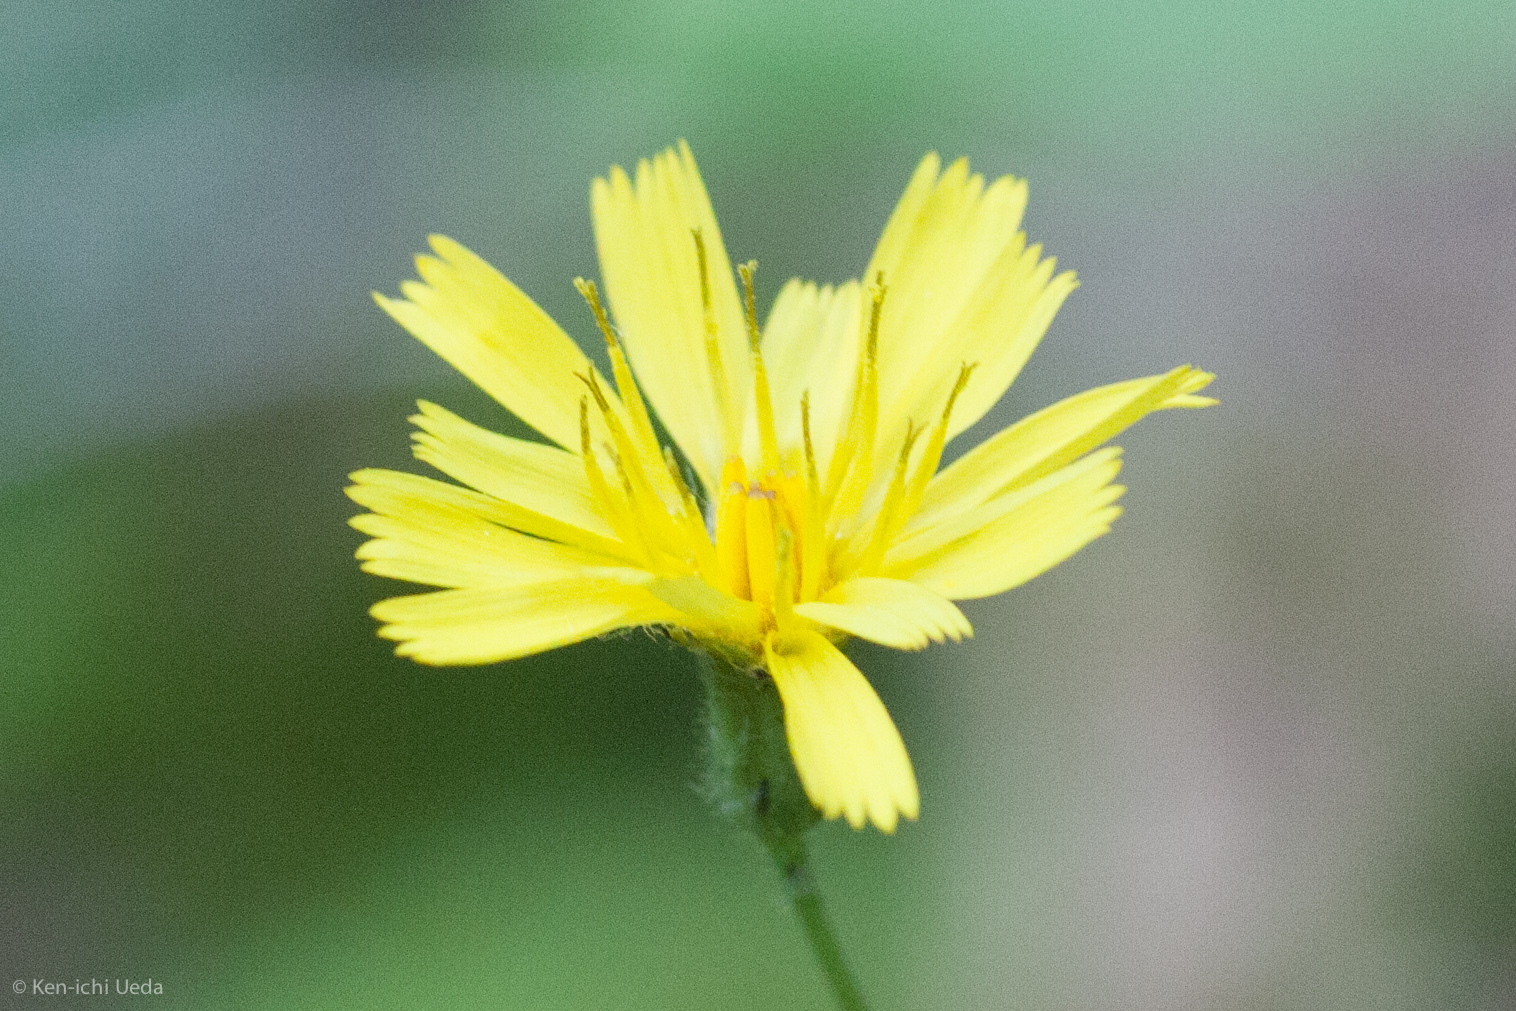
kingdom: Plantae
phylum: Tracheophyta
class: Magnoliopsida
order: Asterales
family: Asteraceae
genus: Hieracium
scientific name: Hieracium venosum
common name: Rattlesnake hawkweed
